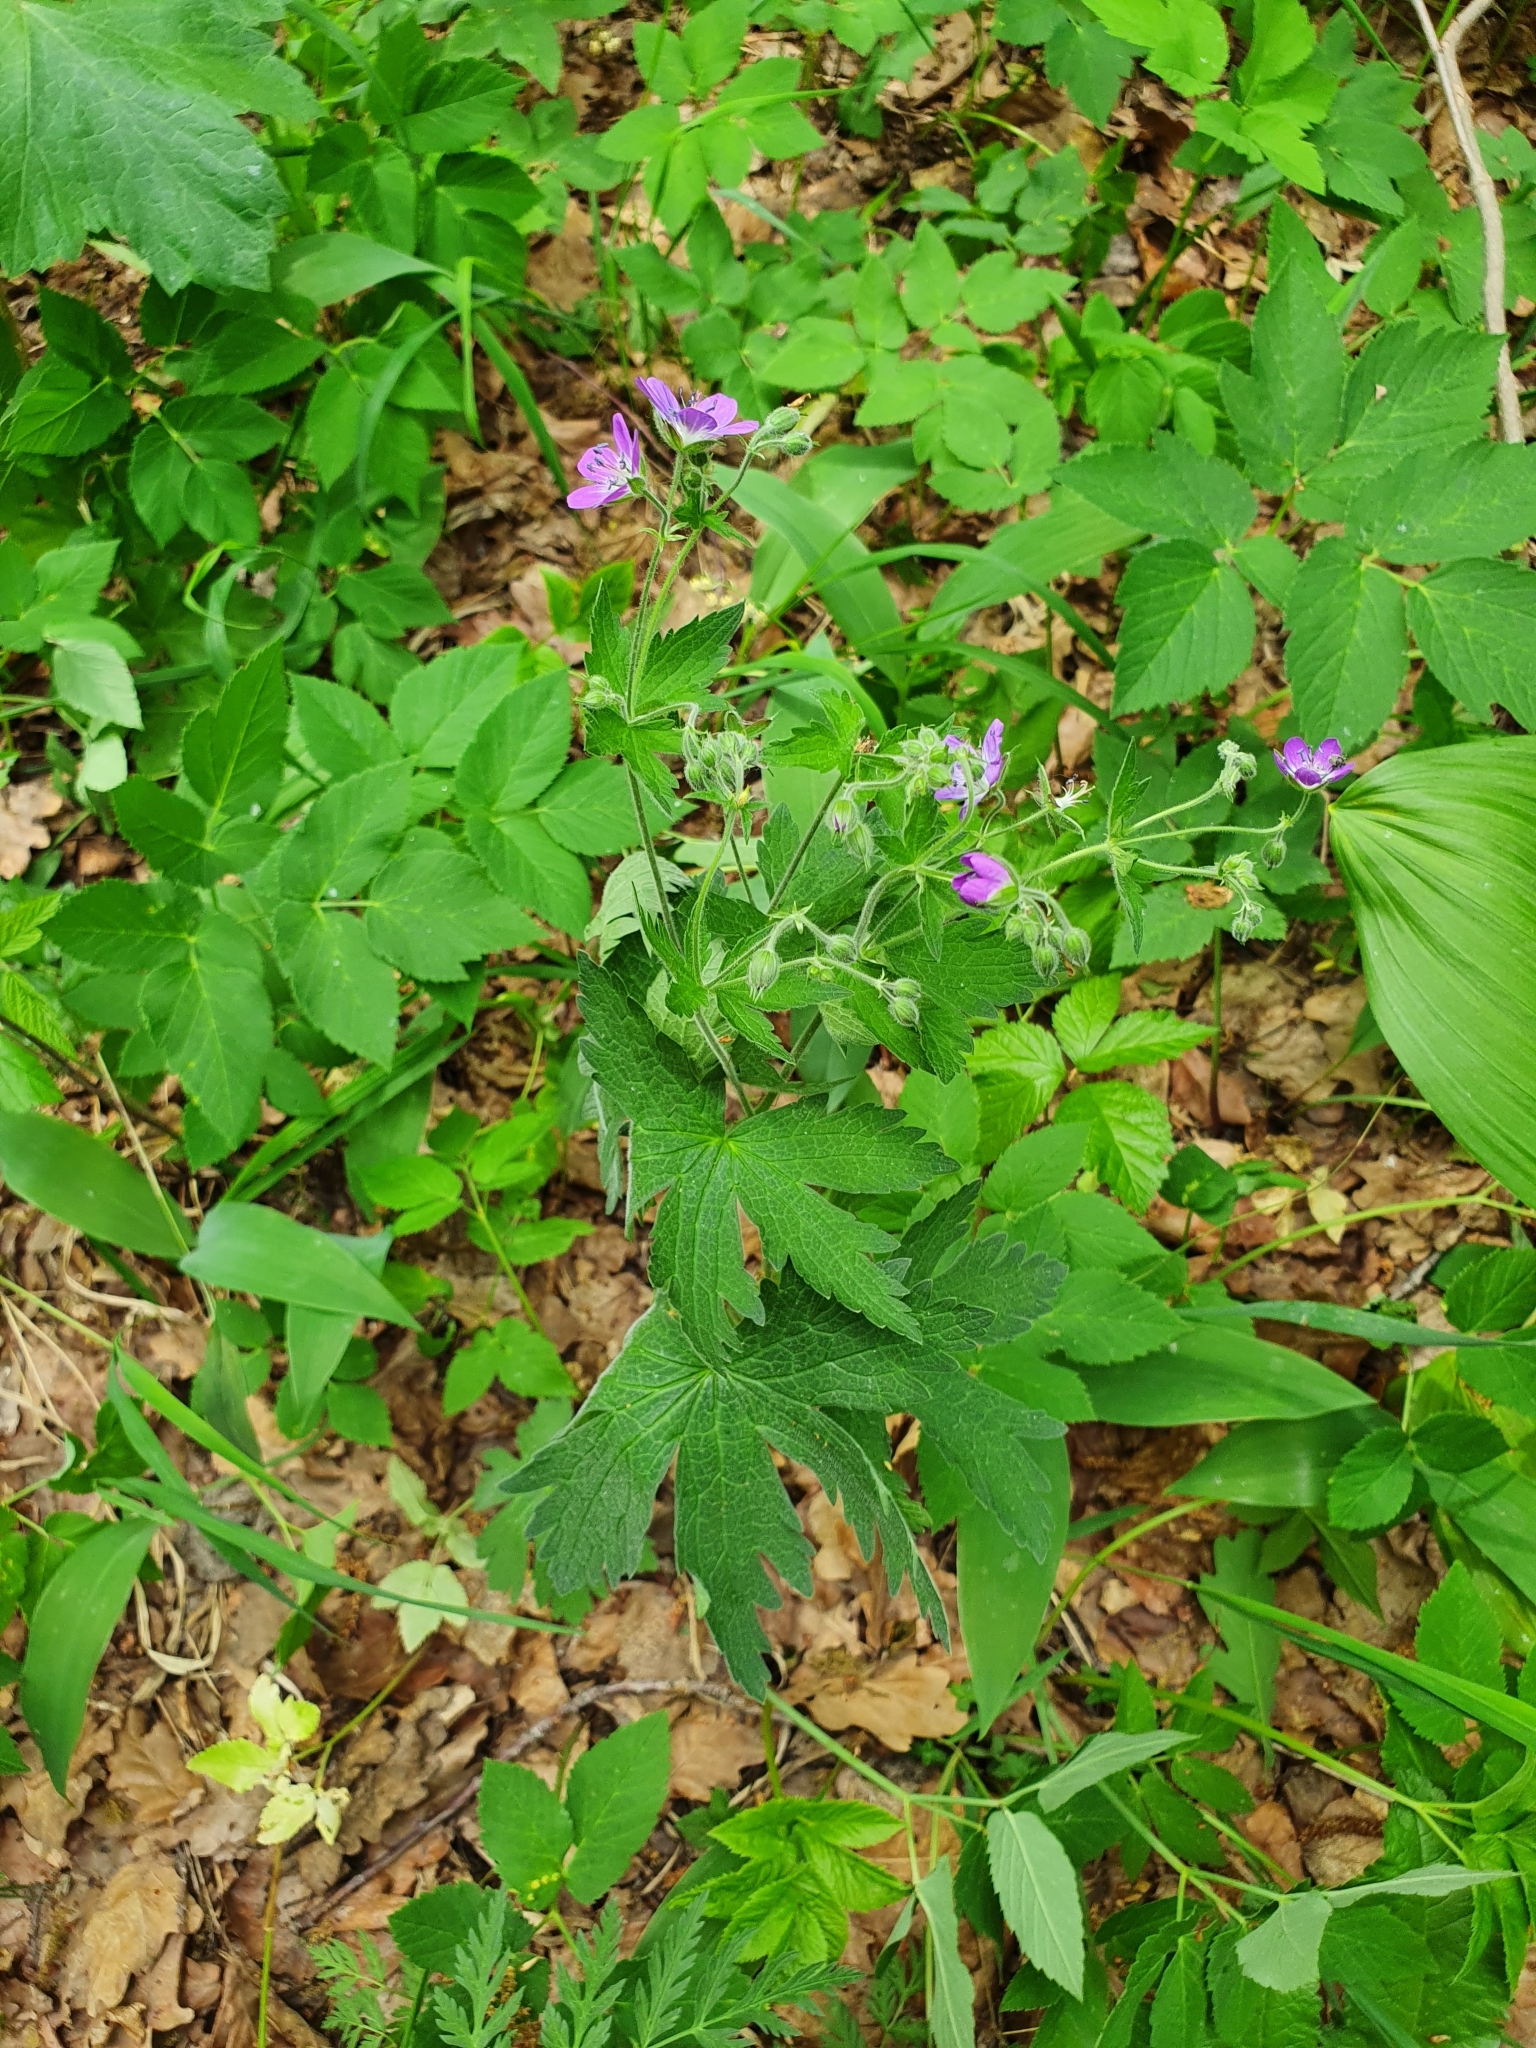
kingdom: Plantae
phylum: Tracheophyta
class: Magnoliopsida
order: Geraniales
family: Geraniaceae
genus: Geranium
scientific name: Geranium sylvaticum
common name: Wood crane's-bill
